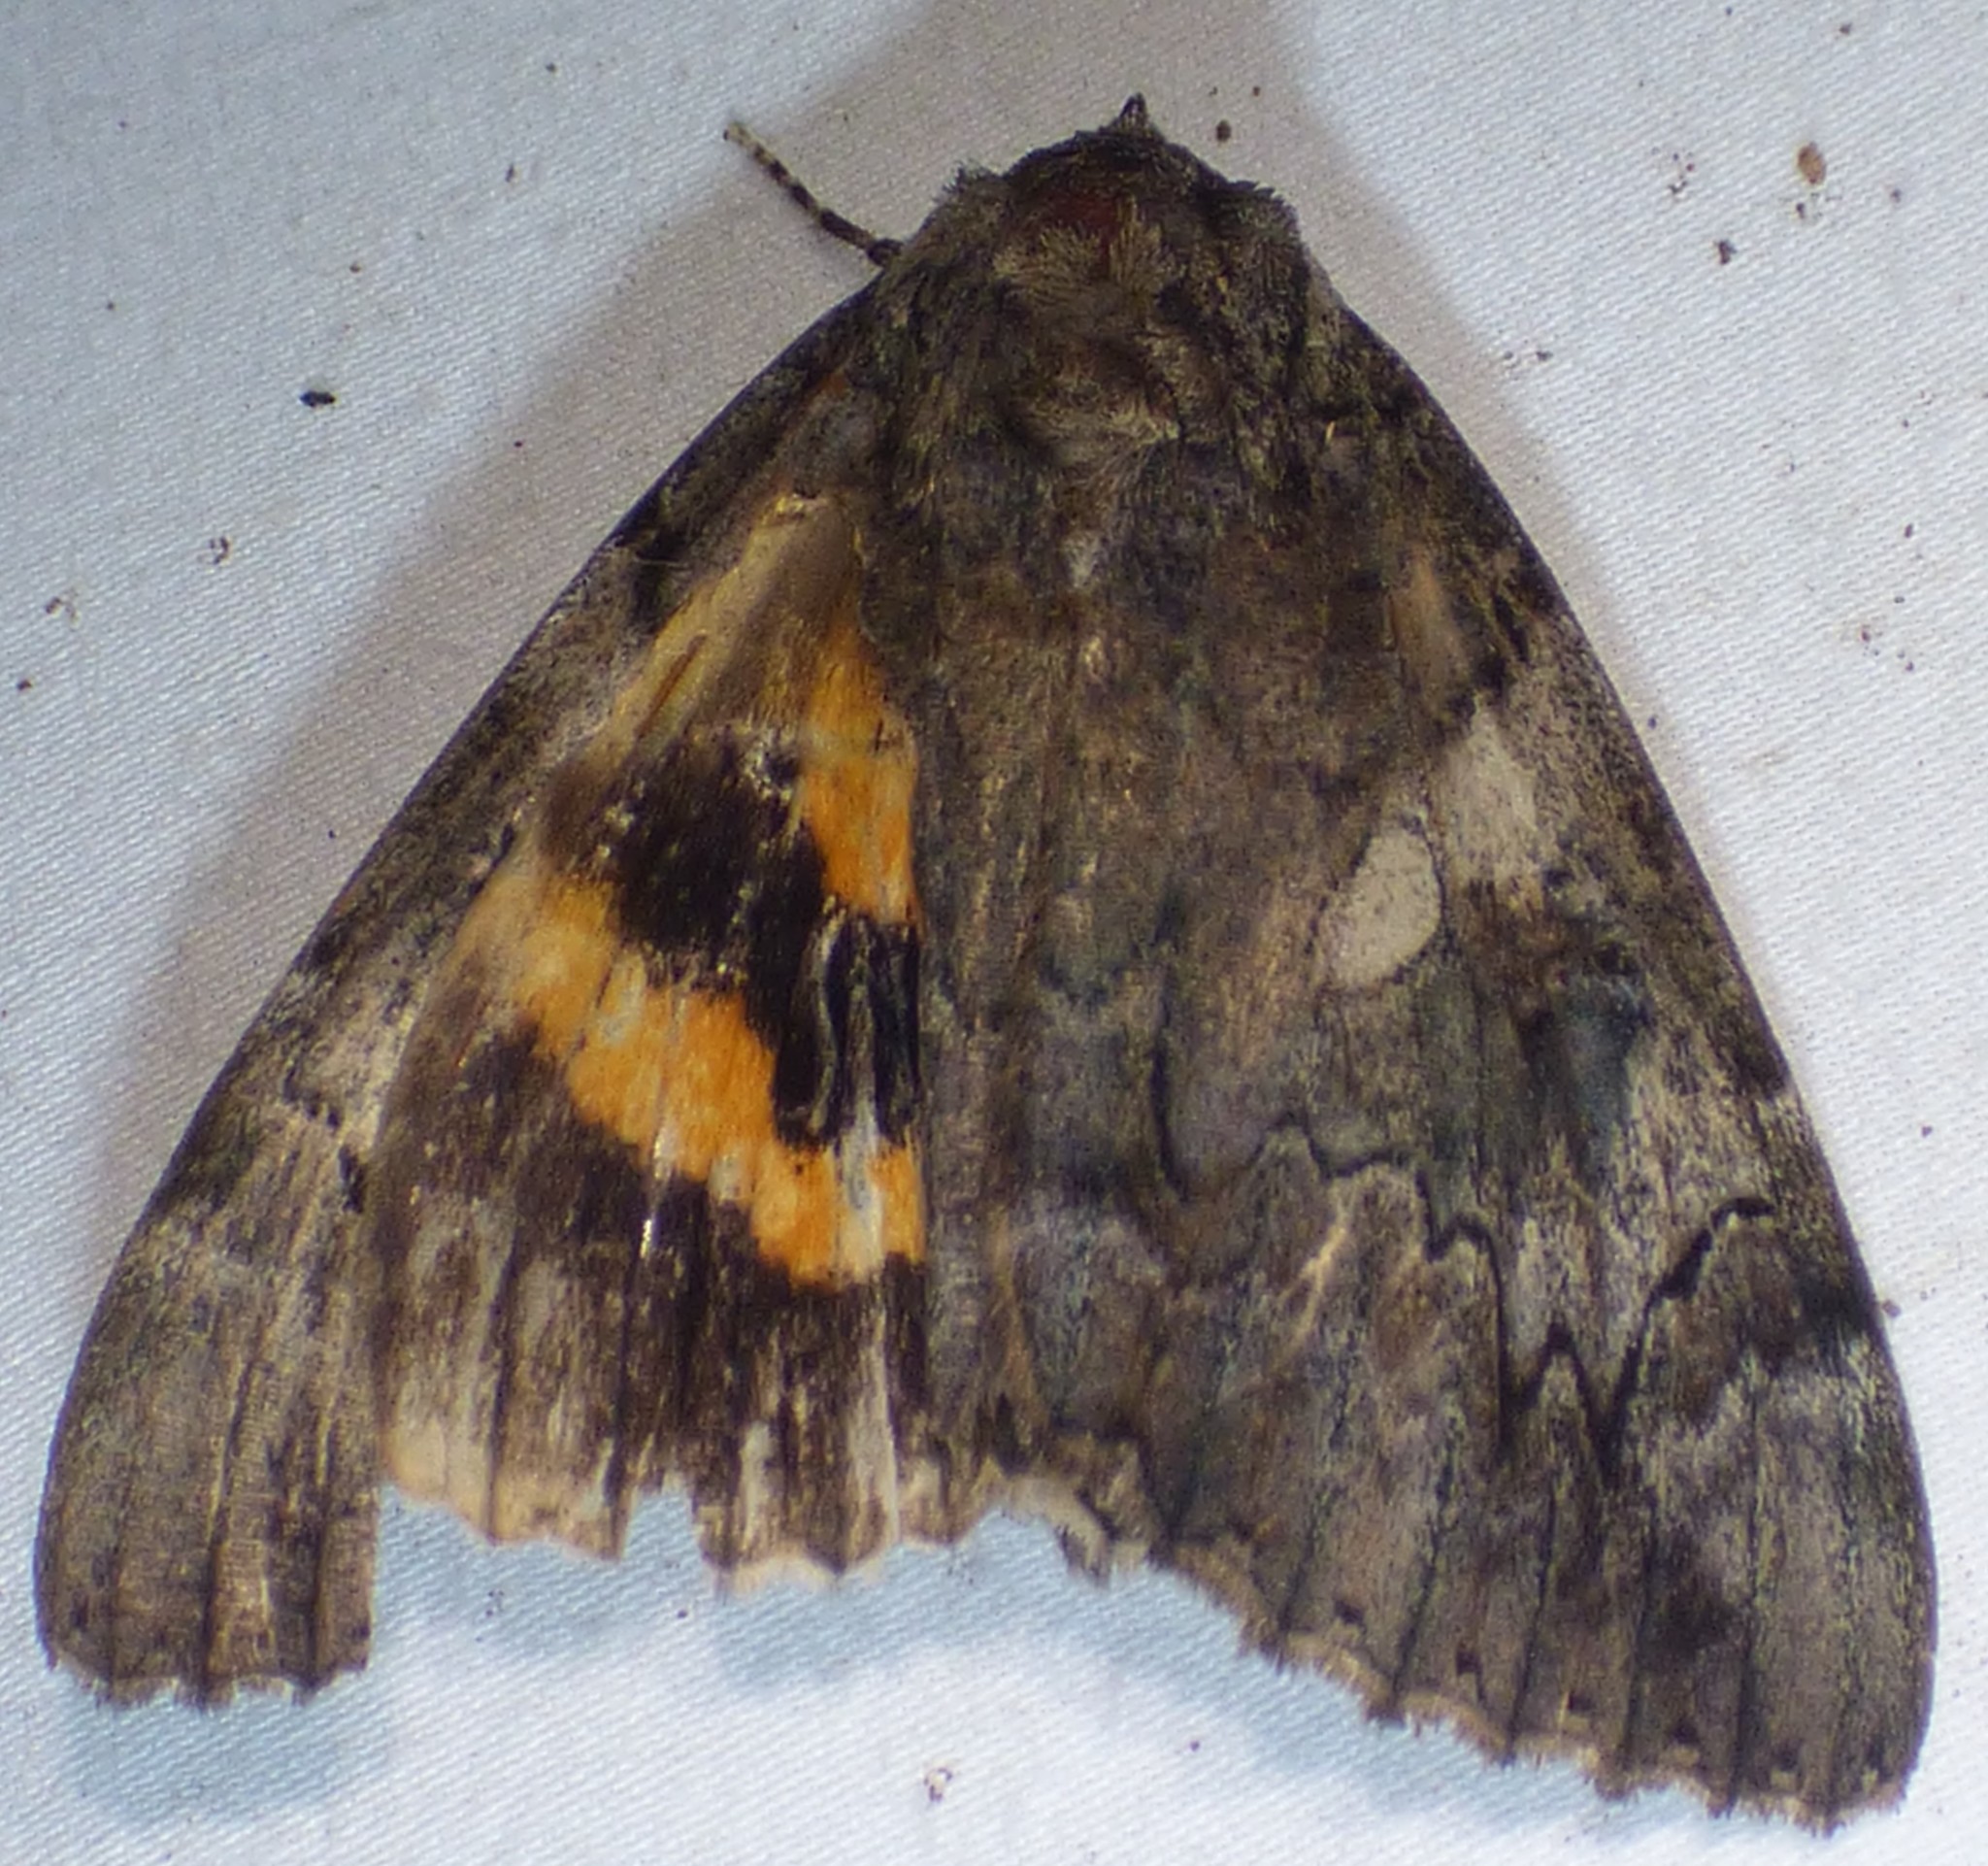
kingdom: Animalia
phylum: Arthropoda
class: Insecta
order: Lepidoptera
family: Erebidae
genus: Catocala
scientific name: Catocala piatrix
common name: The penitent underwing
